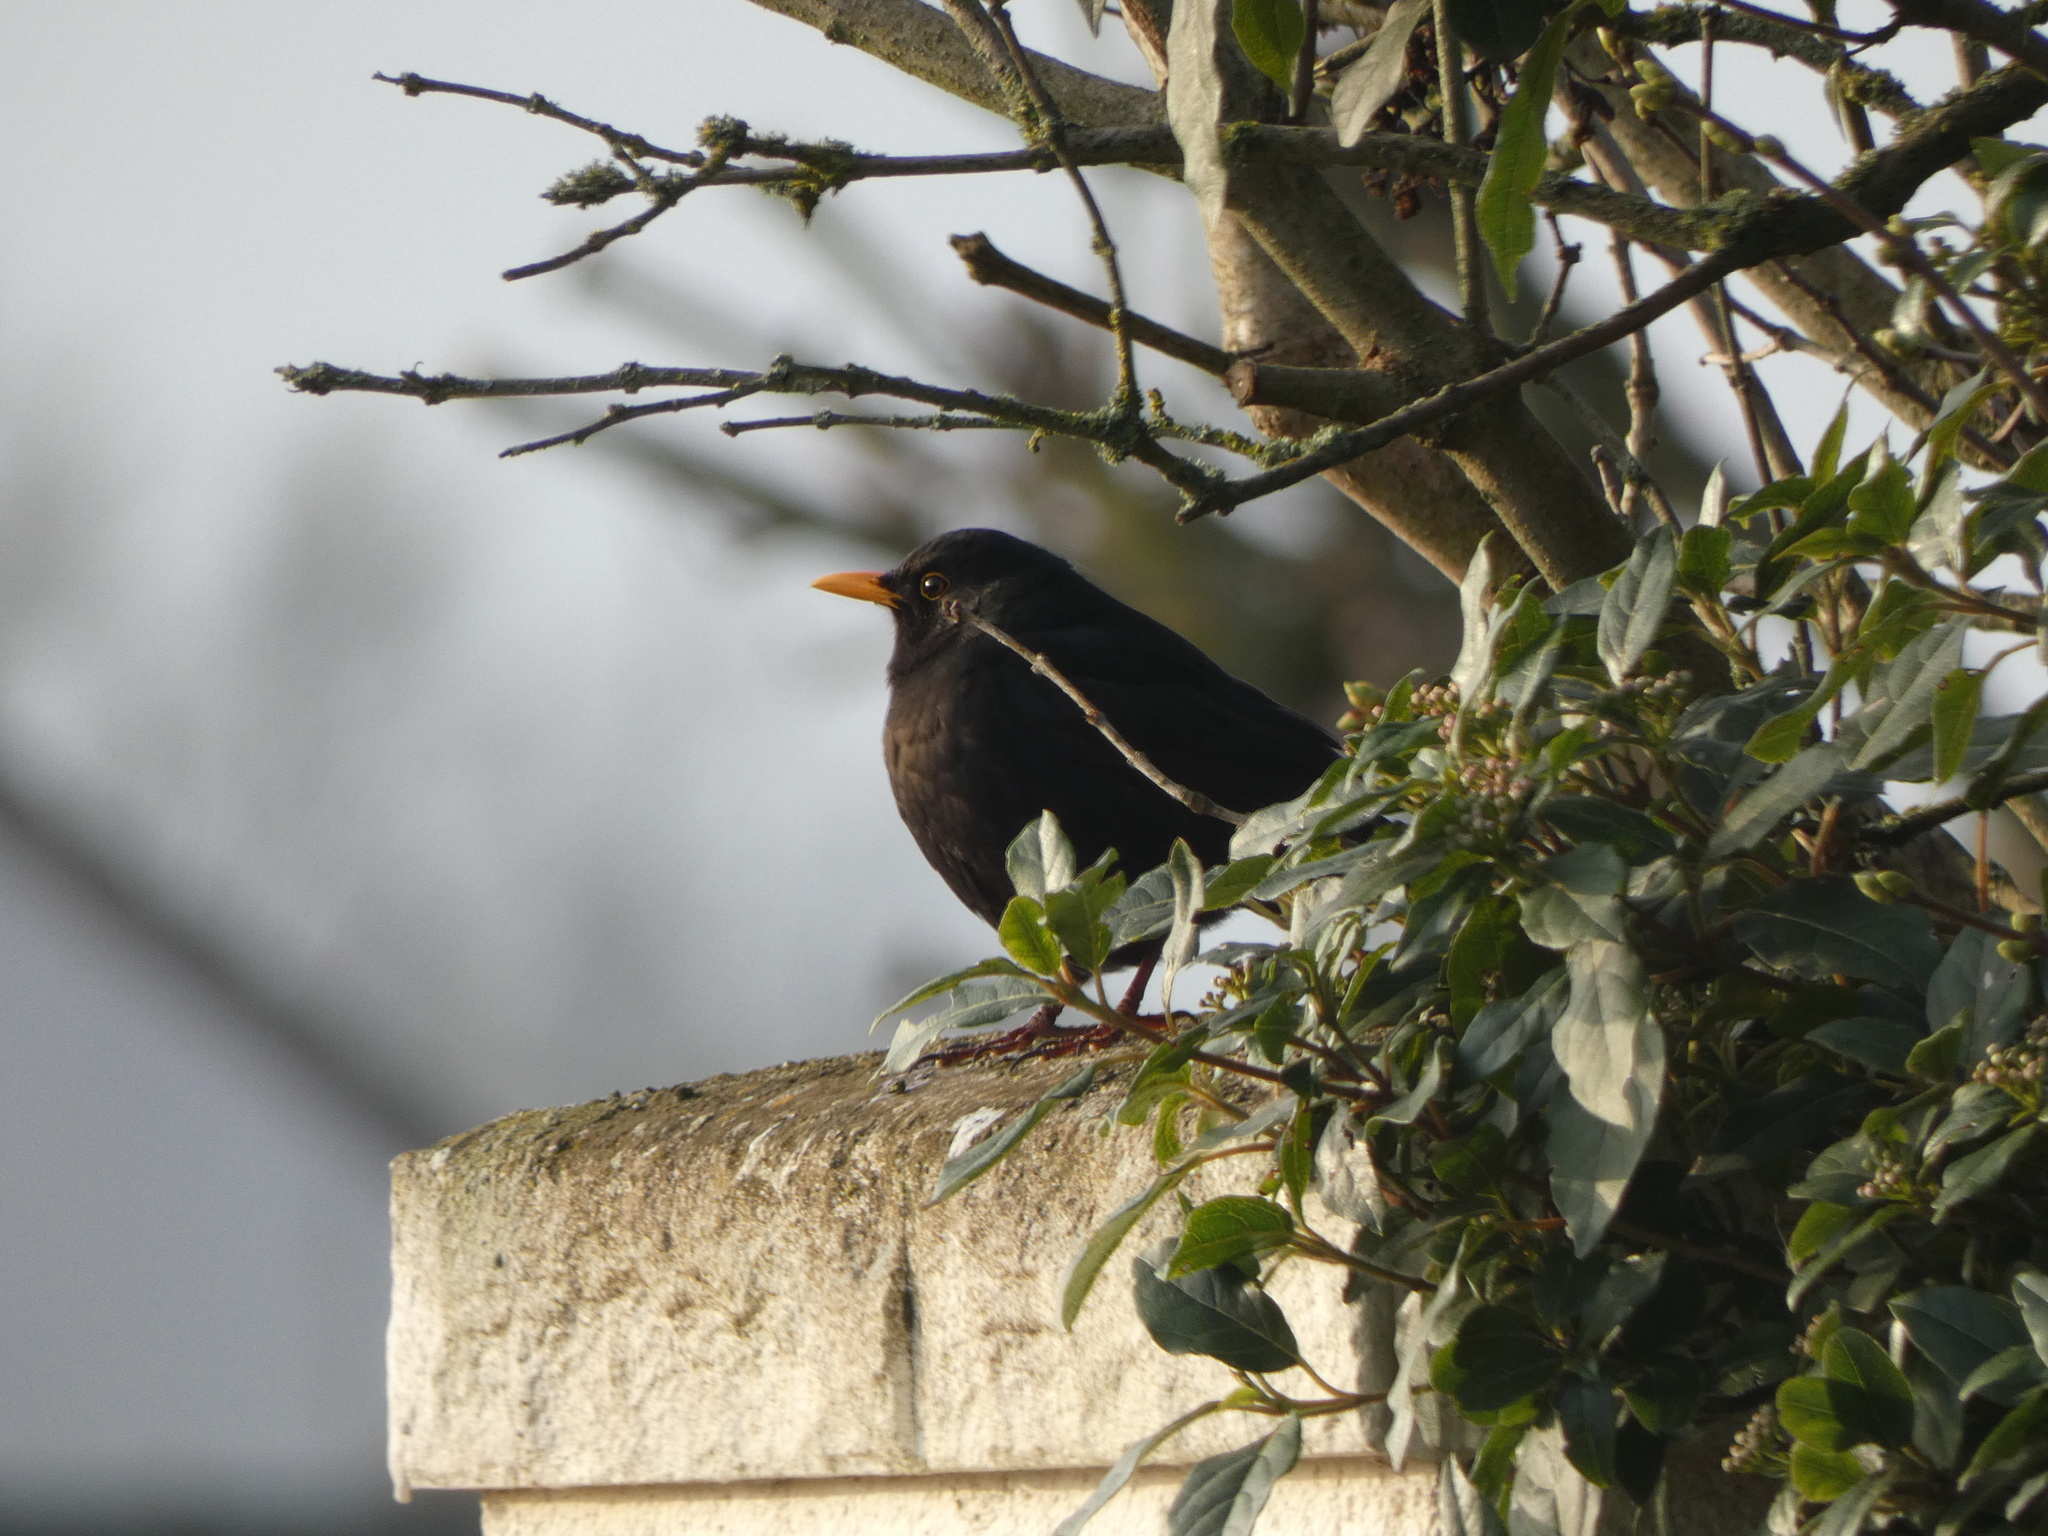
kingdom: Animalia
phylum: Chordata
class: Aves
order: Passeriformes
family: Turdidae
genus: Turdus
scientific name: Turdus merula
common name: Common blackbird
